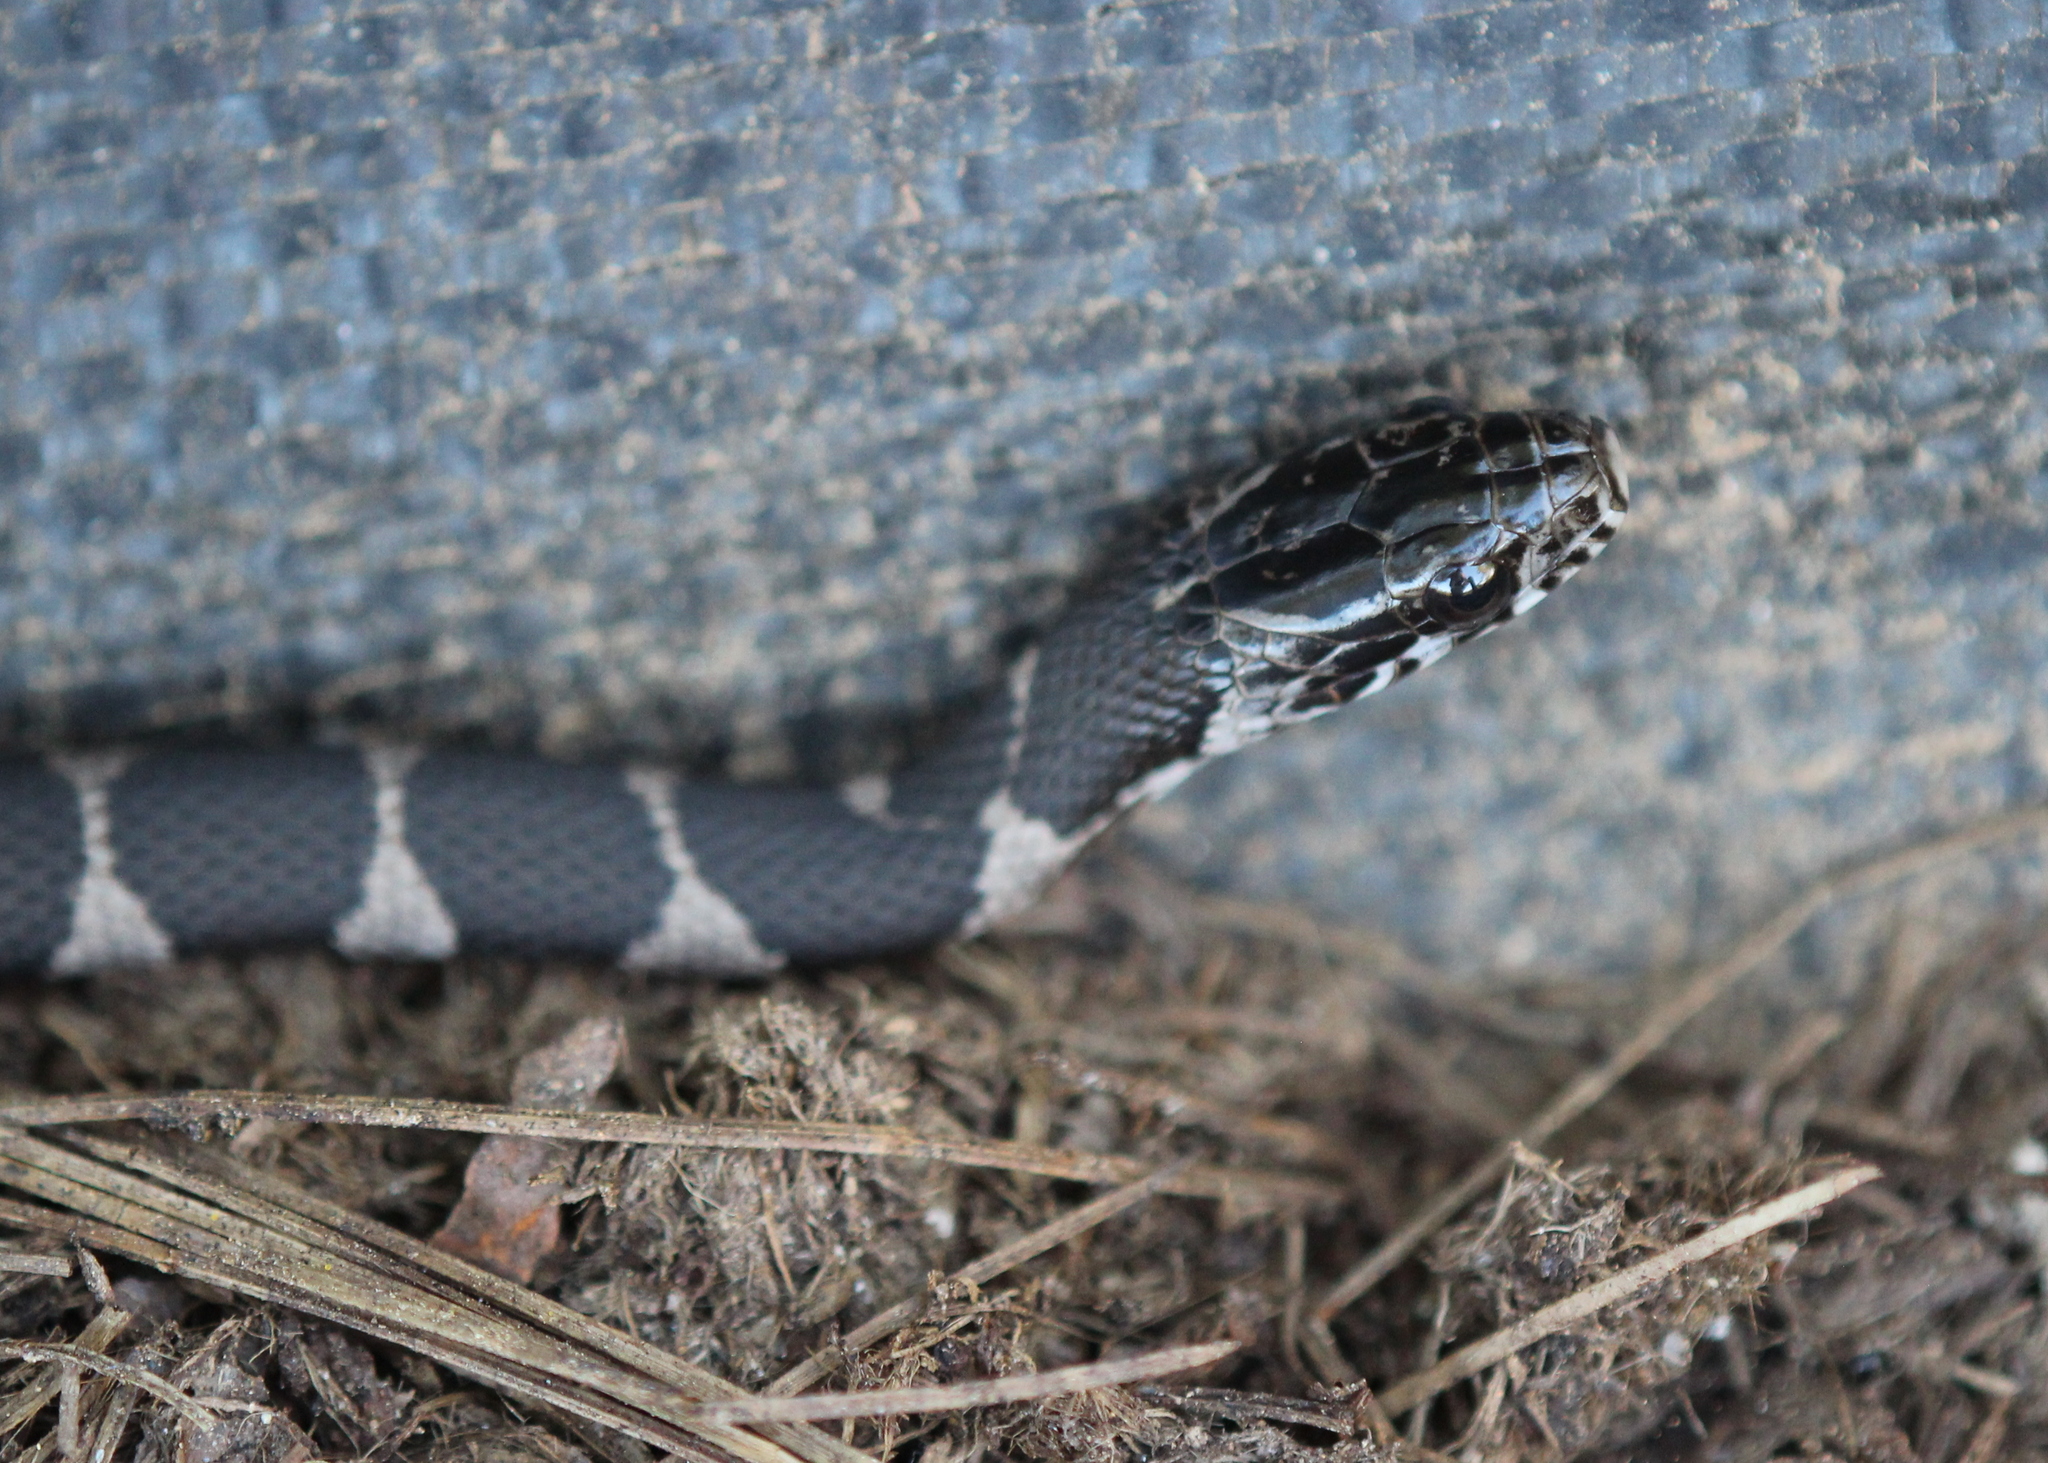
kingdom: Animalia
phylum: Chordata
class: Squamata
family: Colubridae
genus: Nerodia
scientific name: Nerodia sipedon
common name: Northern water snake
